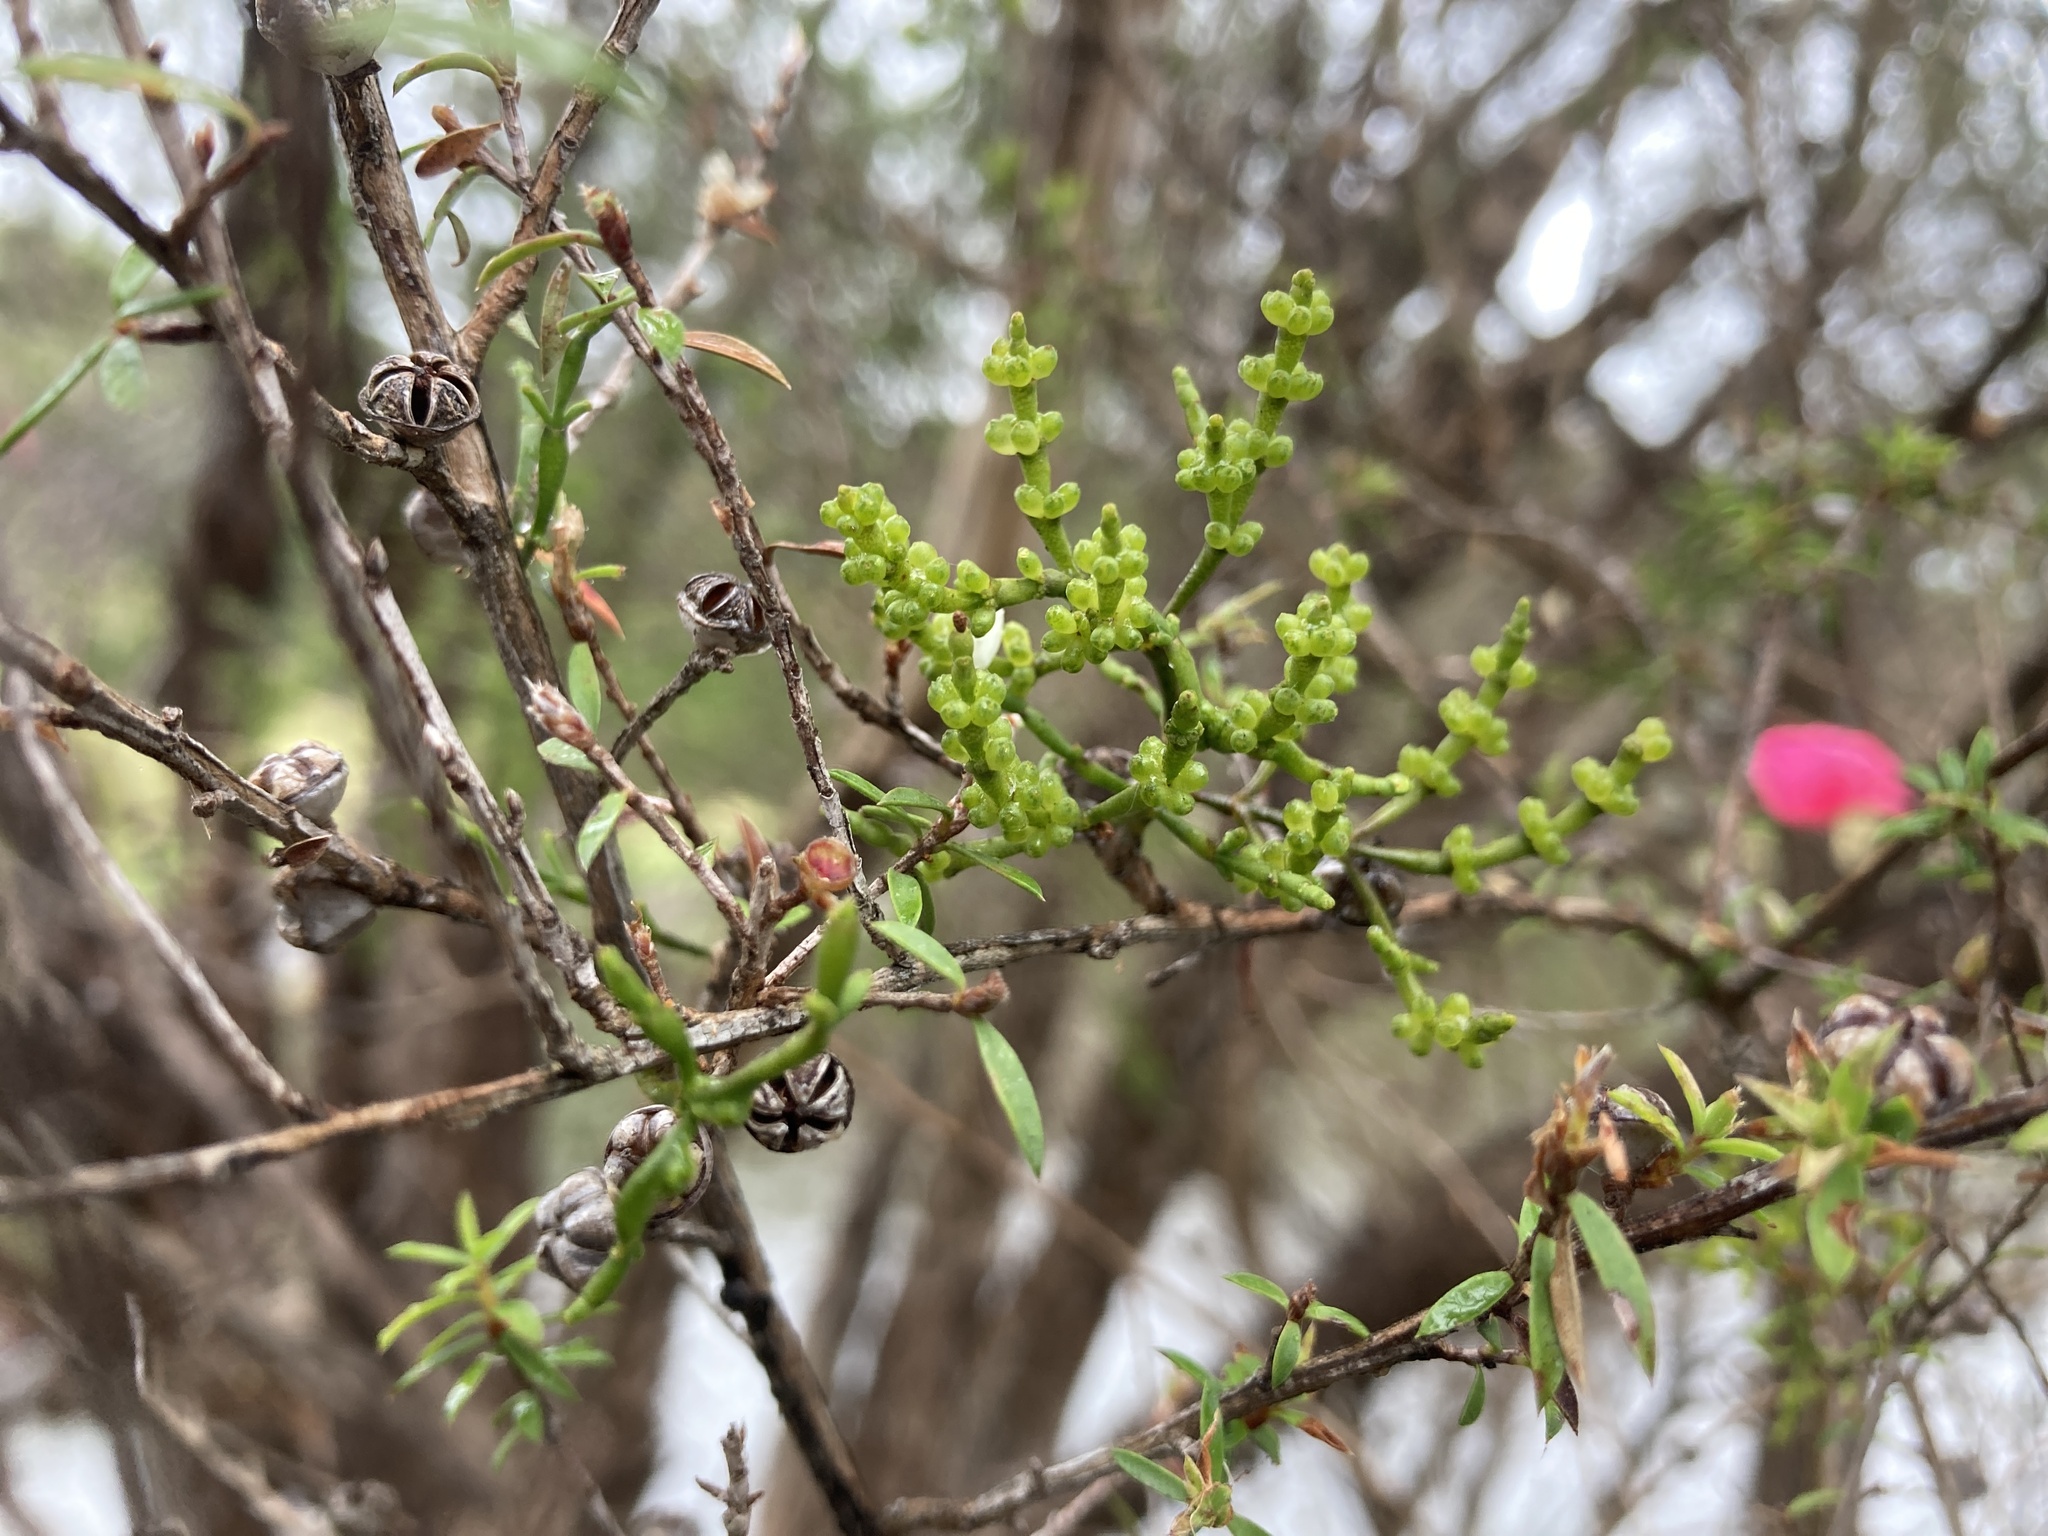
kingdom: Plantae
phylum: Tracheophyta
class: Magnoliopsida
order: Santalales
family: Viscaceae
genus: Korthalsella
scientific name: Korthalsella salicornioides
